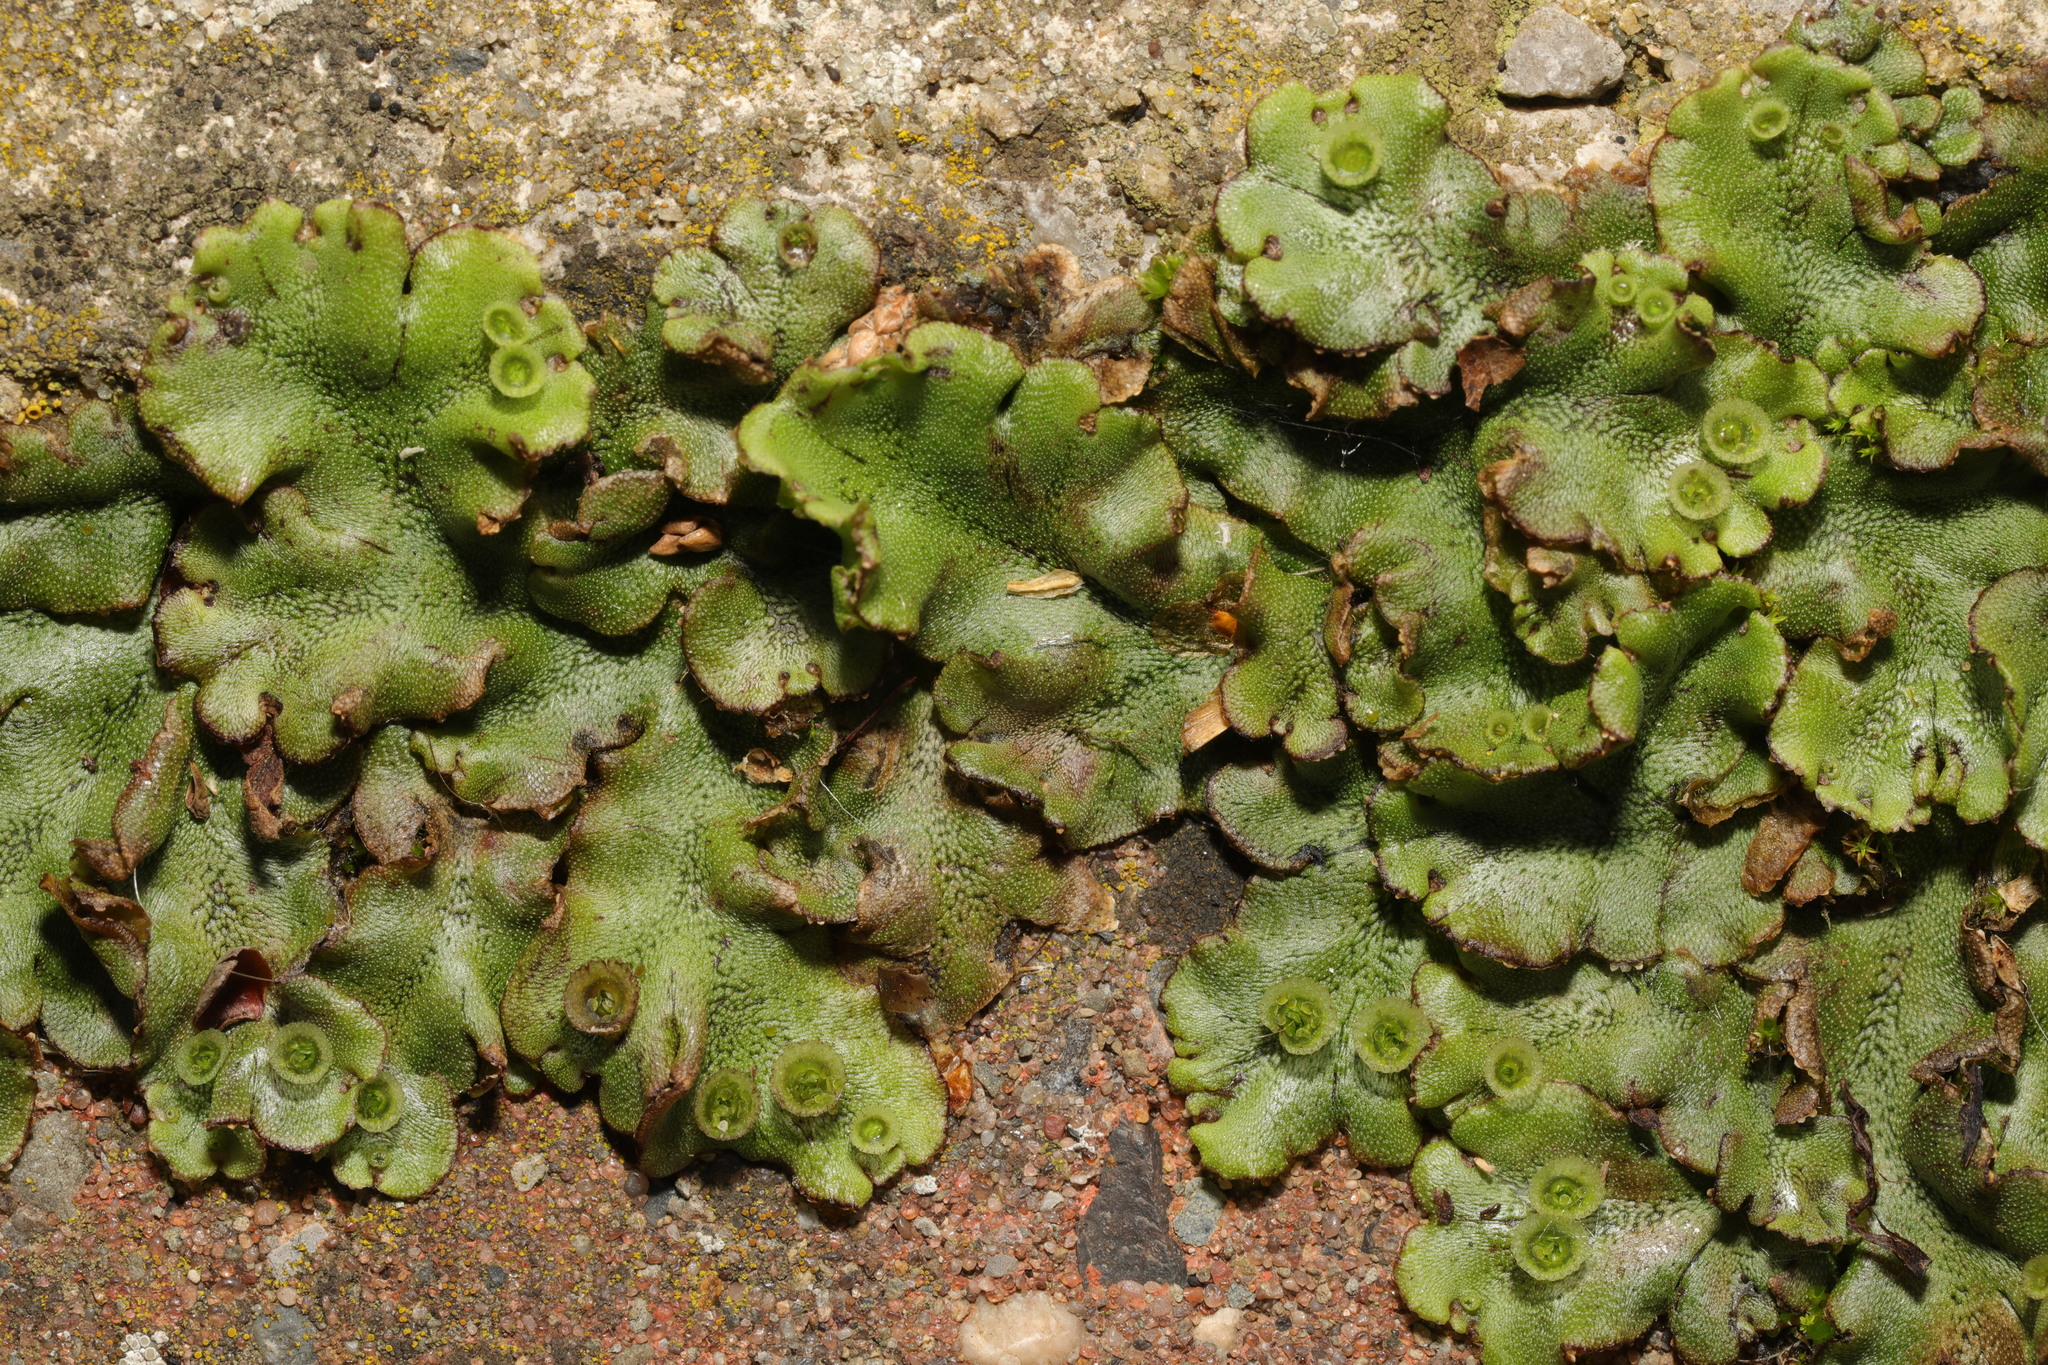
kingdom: Plantae
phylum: Marchantiophyta
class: Marchantiopsida
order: Marchantiales
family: Marchantiaceae
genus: Marchantia
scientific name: Marchantia polymorpha
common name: Common liverwort
